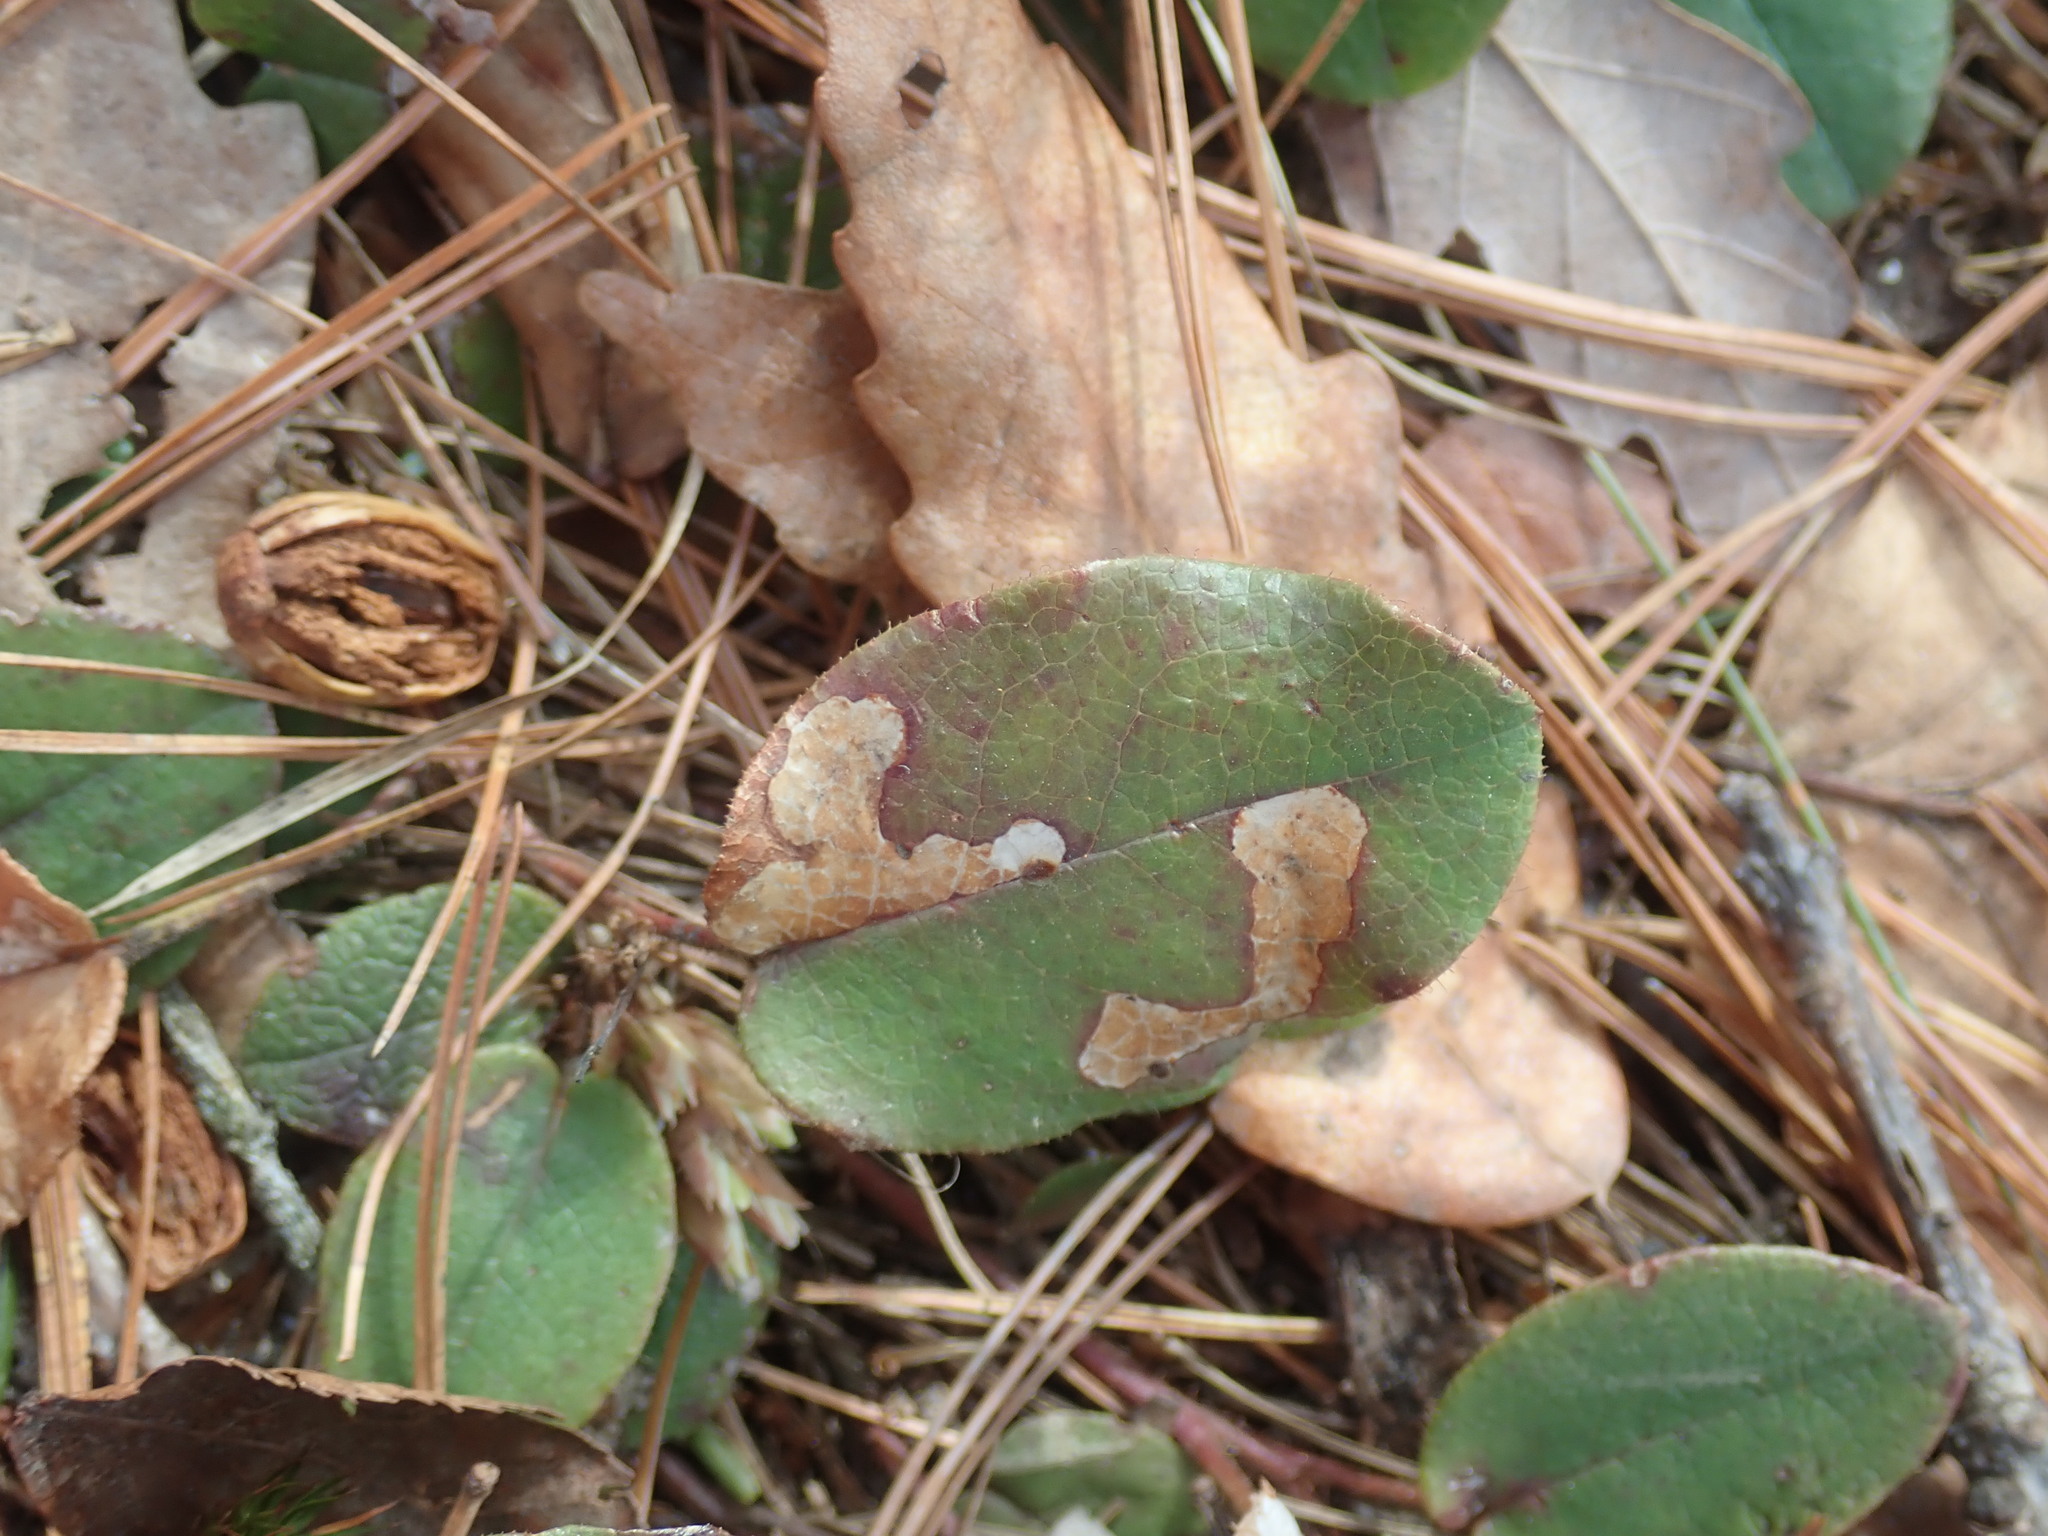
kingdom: Animalia
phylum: Arthropoda
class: Insecta
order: Coleoptera
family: Buprestidae
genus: Brachys
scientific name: Brachys
